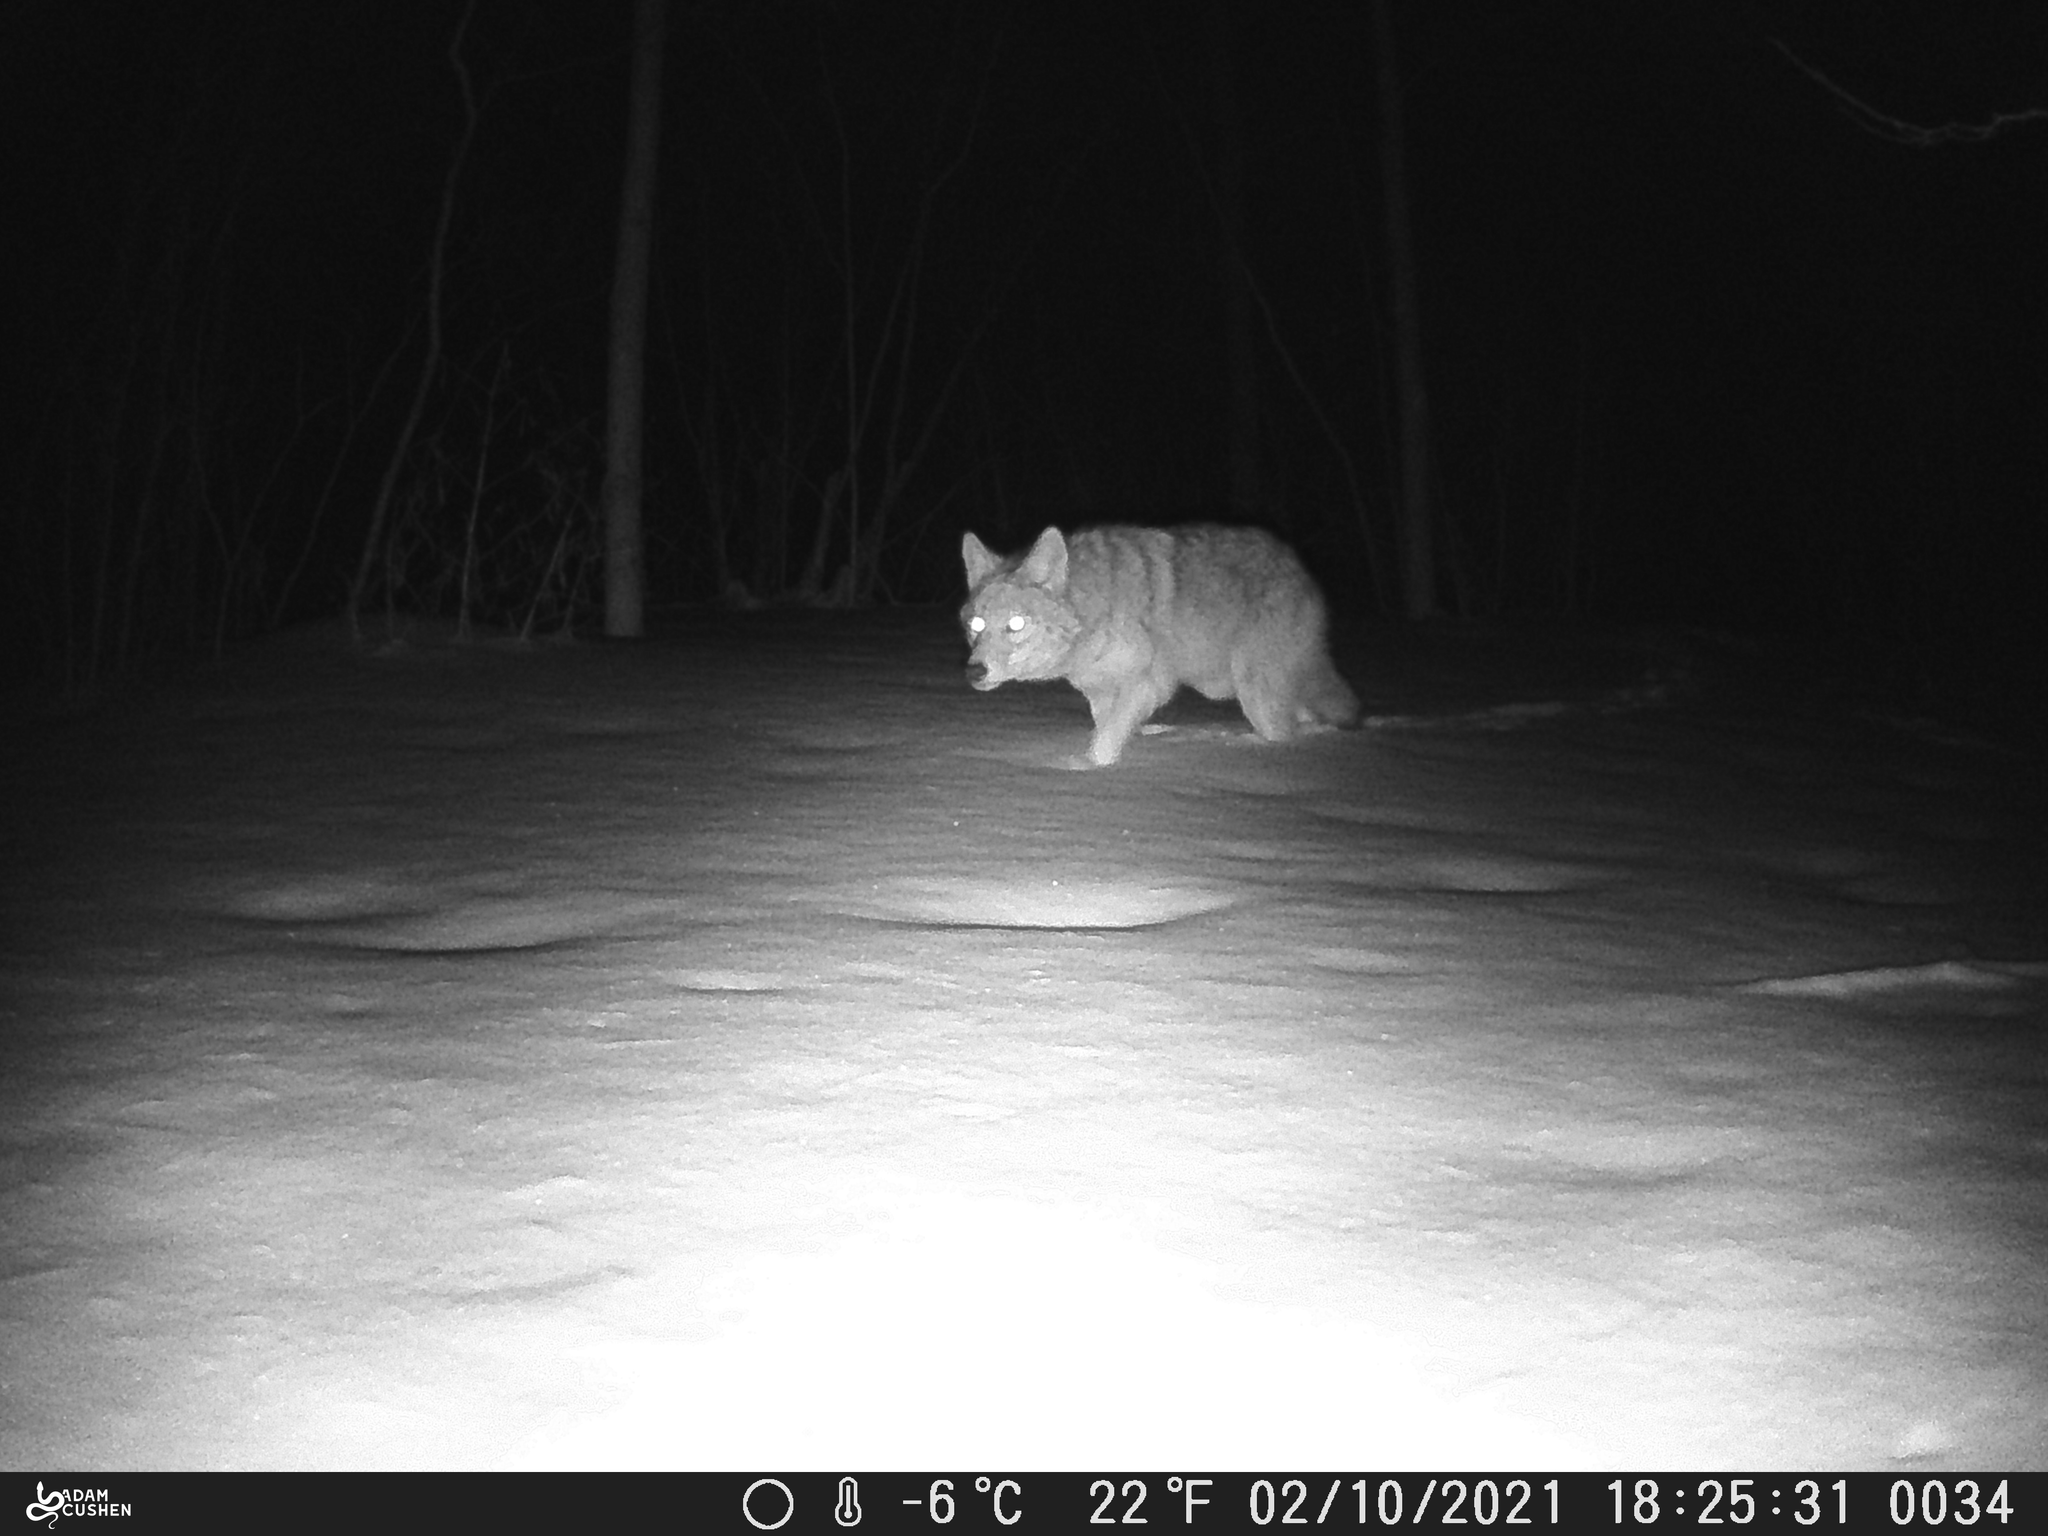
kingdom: Animalia
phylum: Chordata
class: Mammalia
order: Carnivora
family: Canidae
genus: Canis
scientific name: Canis latrans
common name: Coyote
